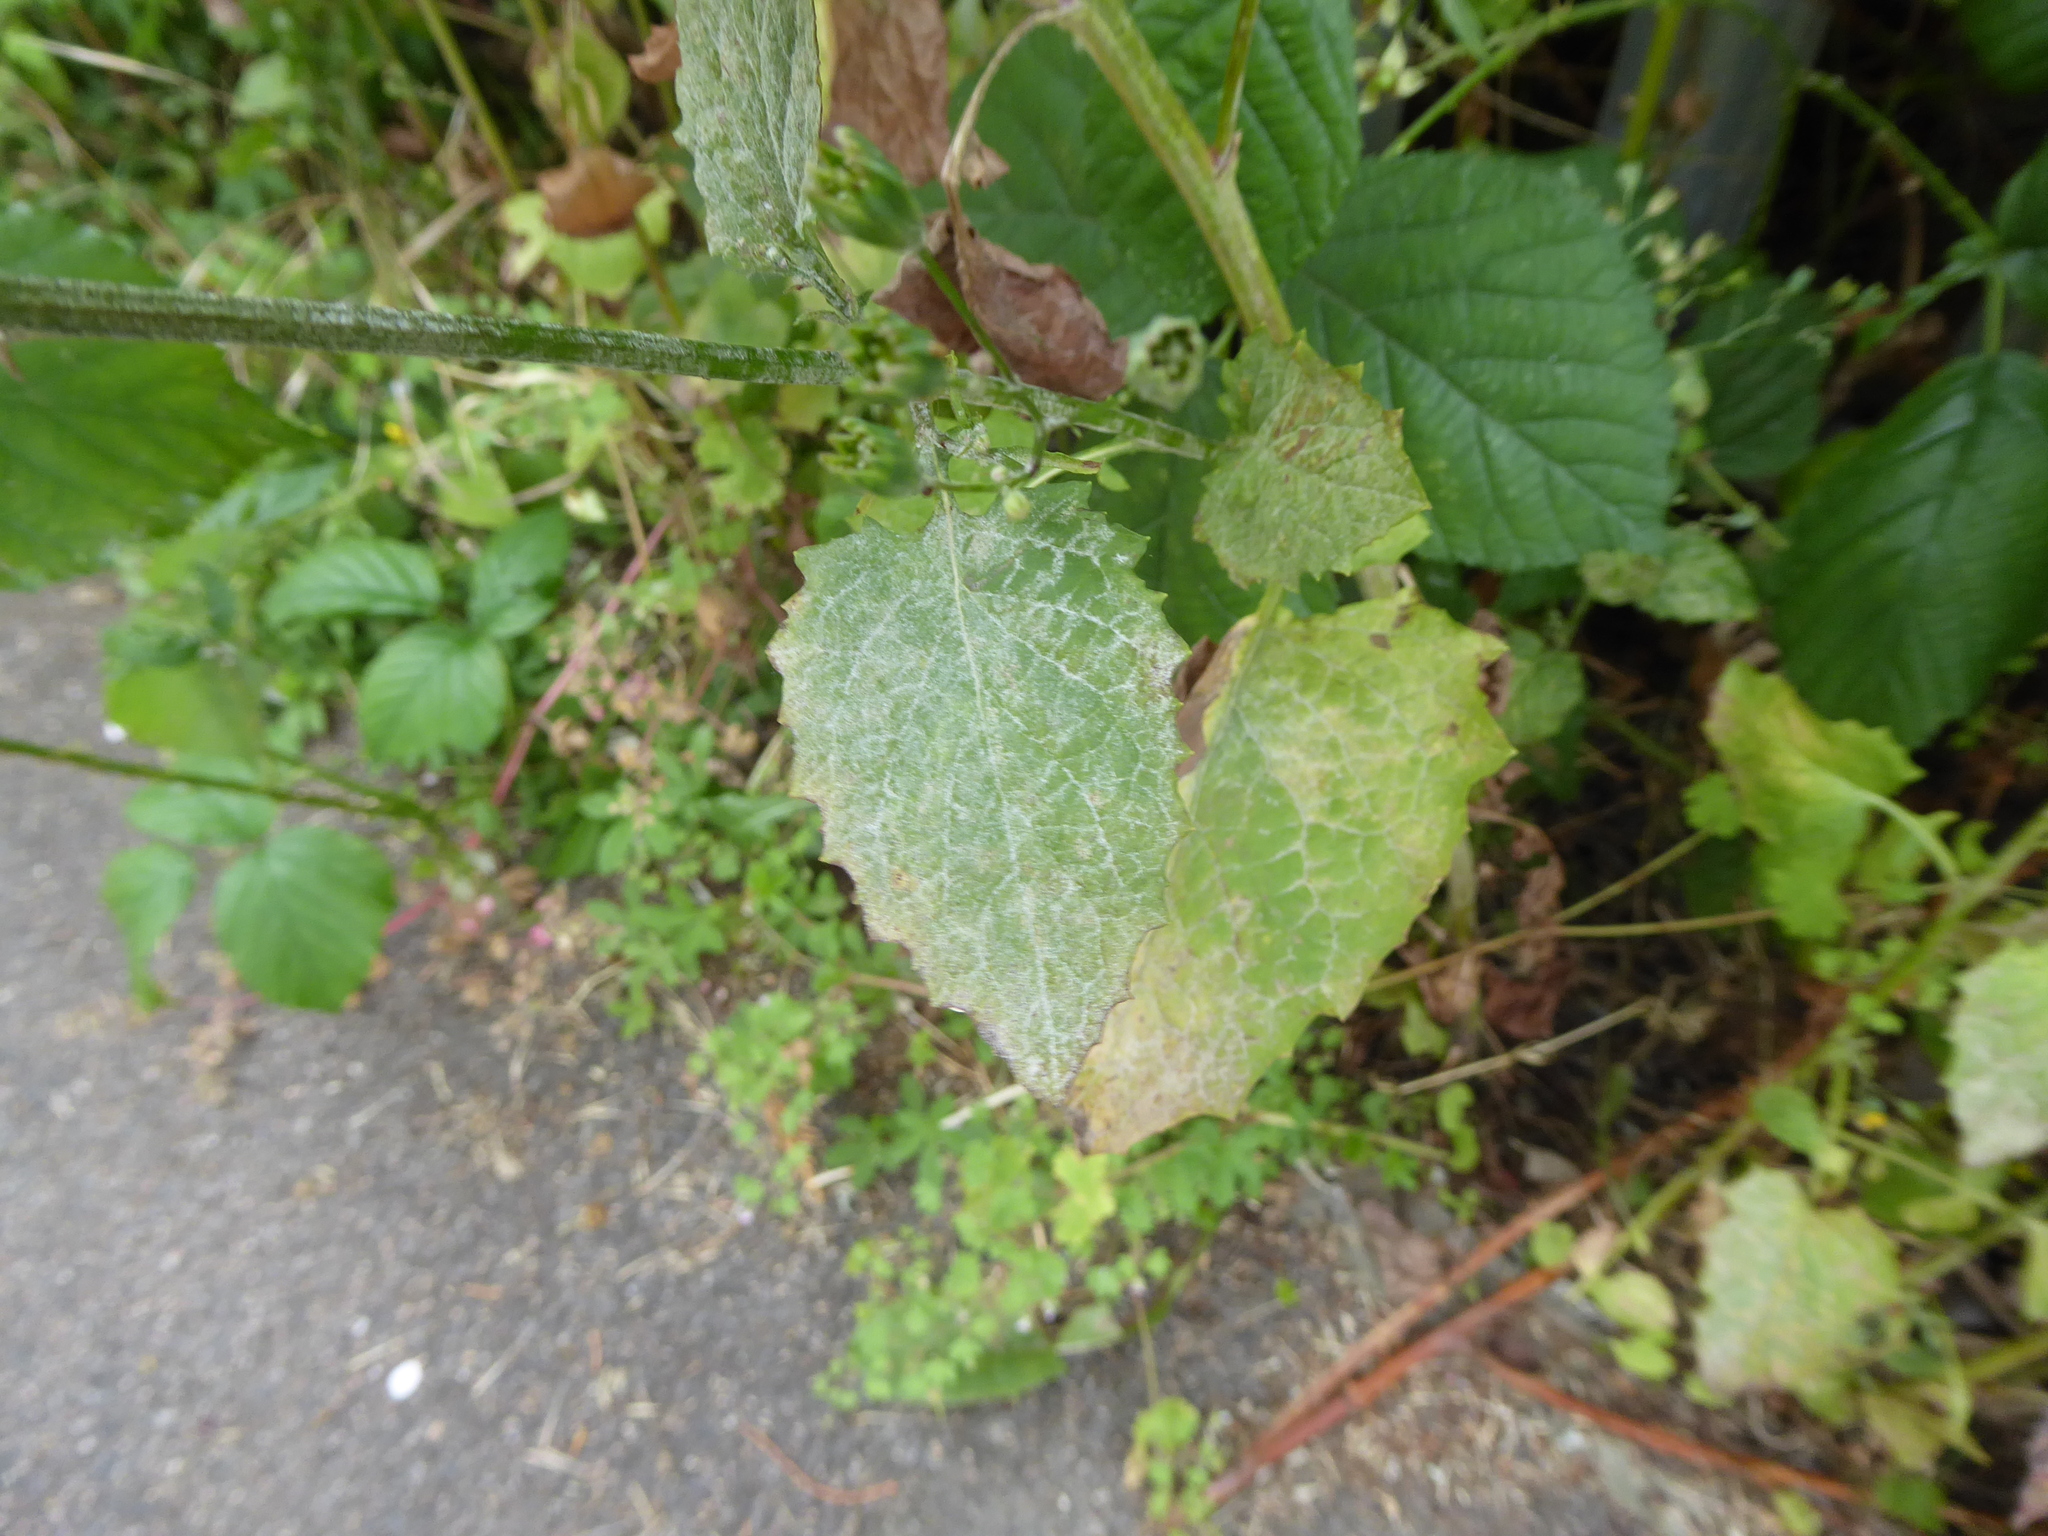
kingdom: Plantae
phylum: Tracheophyta
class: Magnoliopsida
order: Asterales
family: Asteraceae
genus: Lapsana
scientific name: Lapsana communis
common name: Nipplewort
